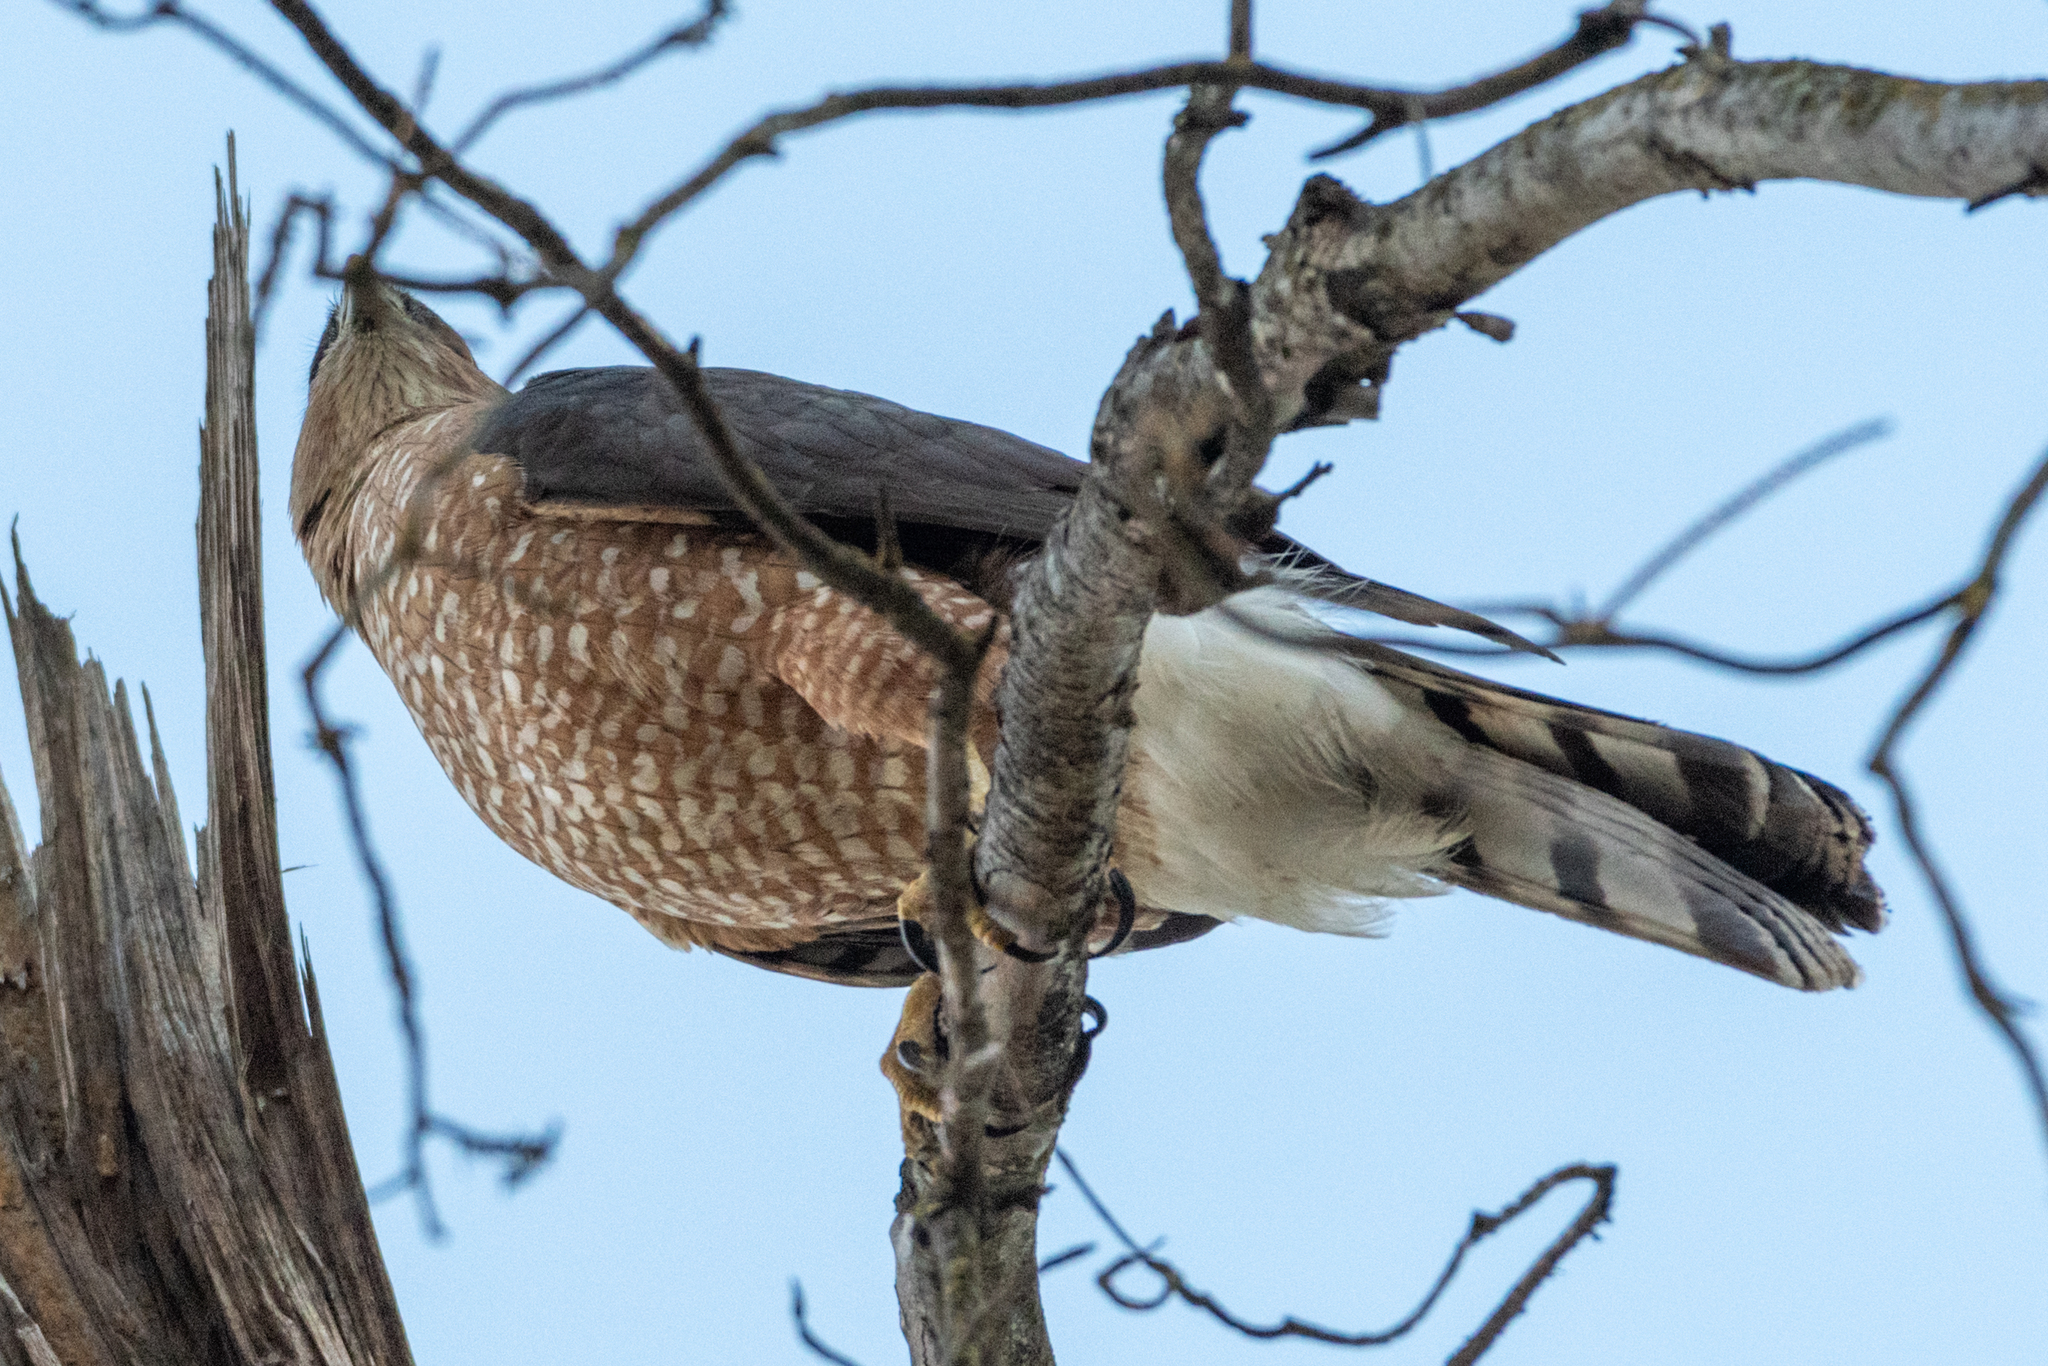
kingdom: Animalia
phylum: Chordata
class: Aves
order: Accipitriformes
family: Accipitridae
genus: Accipiter
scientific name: Accipiter cooperii
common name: Cooper's hawk
